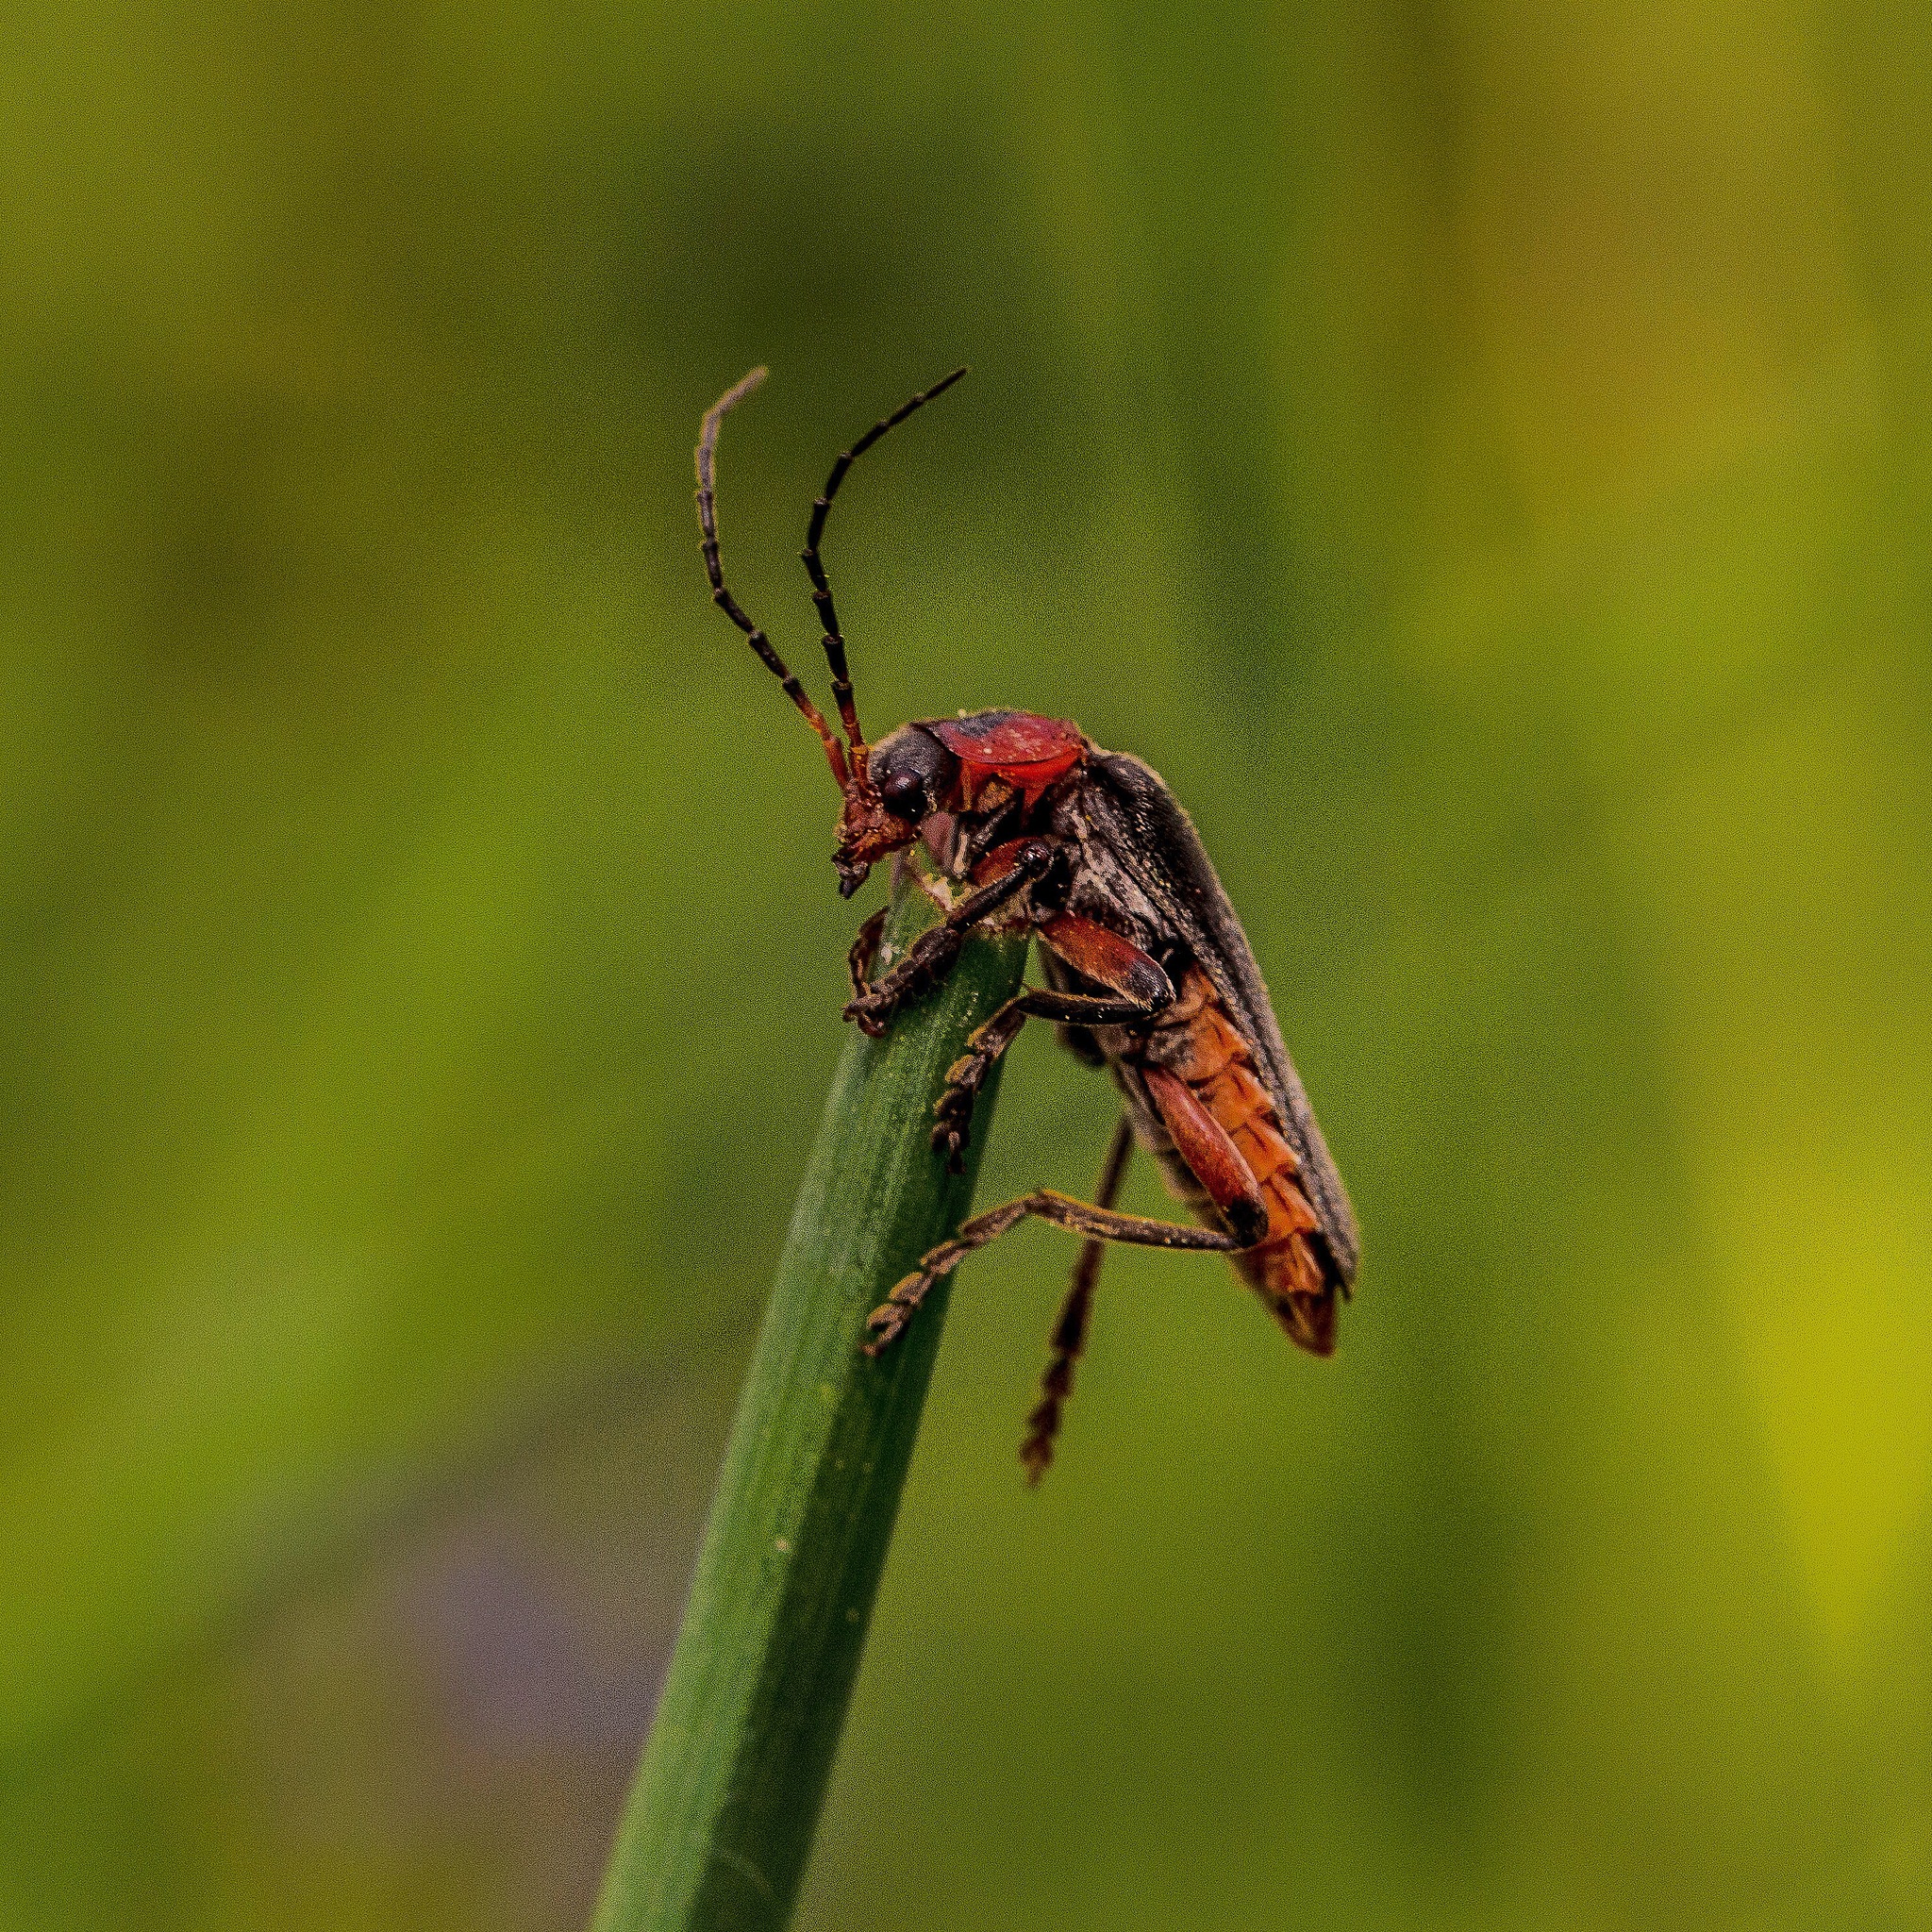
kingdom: Animalia
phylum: Arthropoda
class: Insecta
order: Coleoptera
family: Cantharidae
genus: Cantharis
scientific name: Cantharis rustica
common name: Soldier beetle
